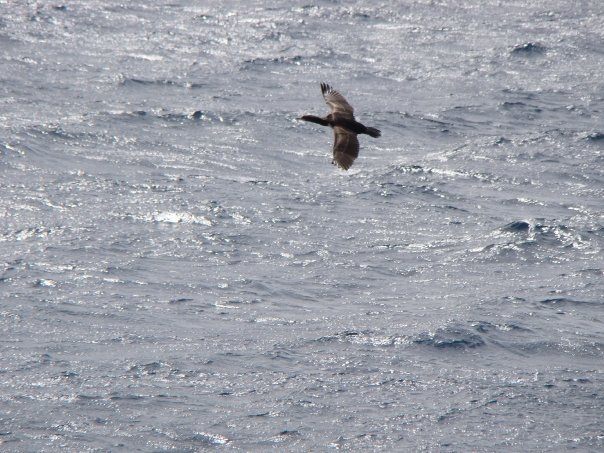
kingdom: Animalia
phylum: Chordata
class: Aves
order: Suliformes
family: Phalacrocoracidae
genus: Leucocarbo
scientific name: Leucocarbo campbelli
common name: Campbell shag
